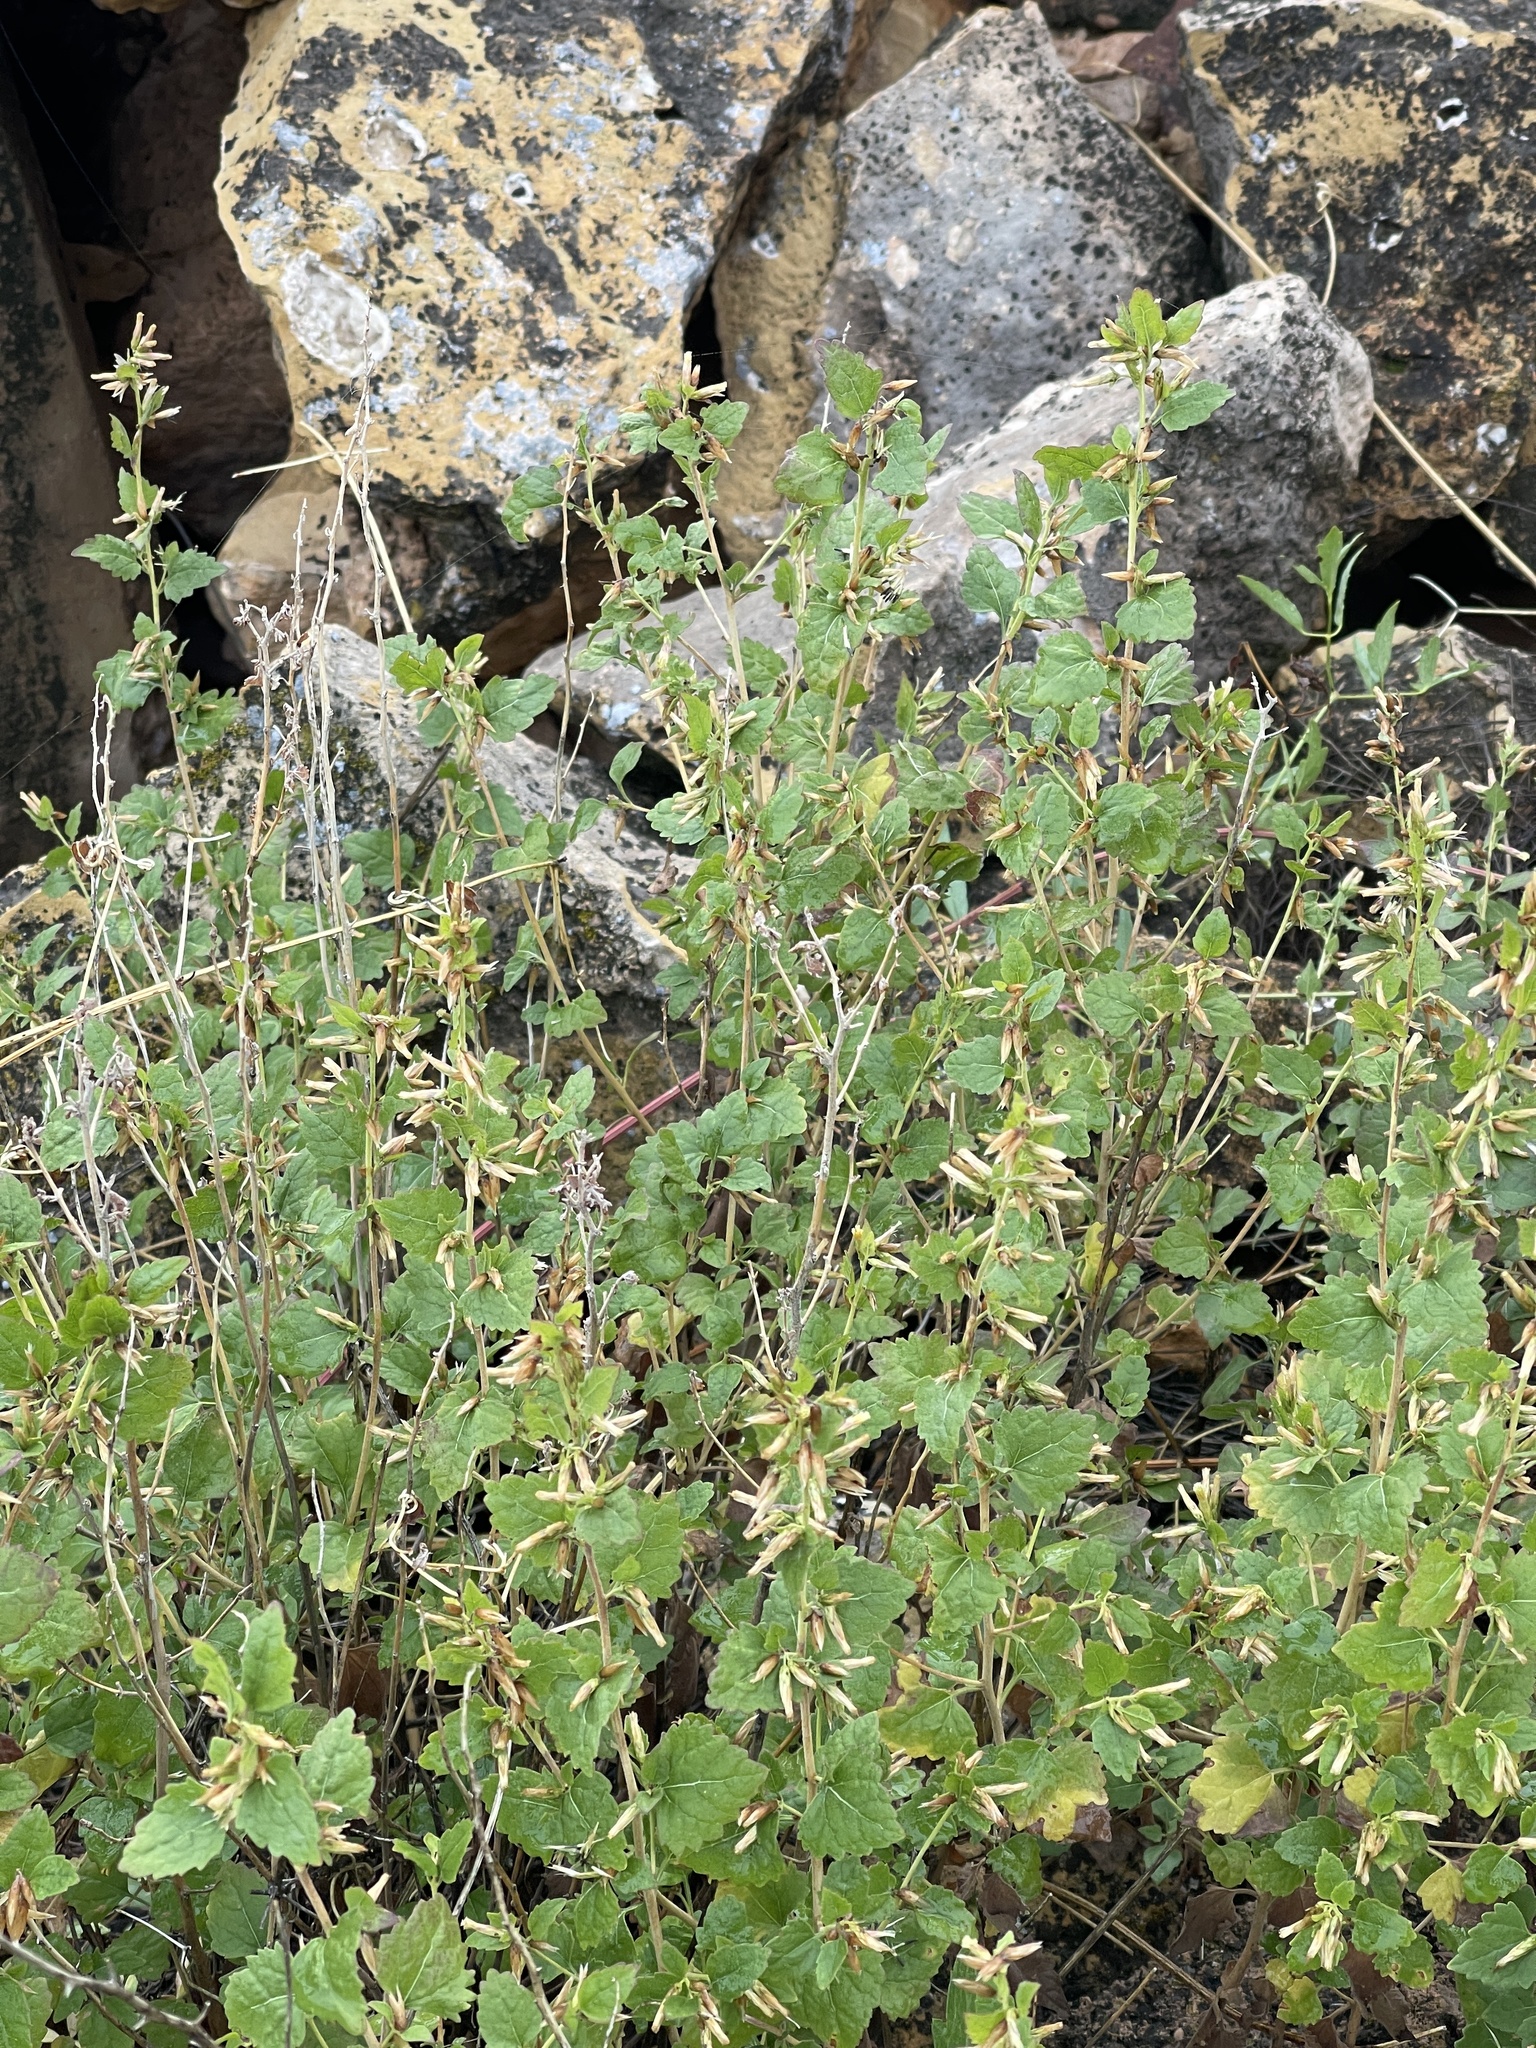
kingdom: Plantae
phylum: Tracheophyta
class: Magnoliopsida
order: Asterales
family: Asteraceae
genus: Brickellia
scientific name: Brickellia californica
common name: California brickellbush
